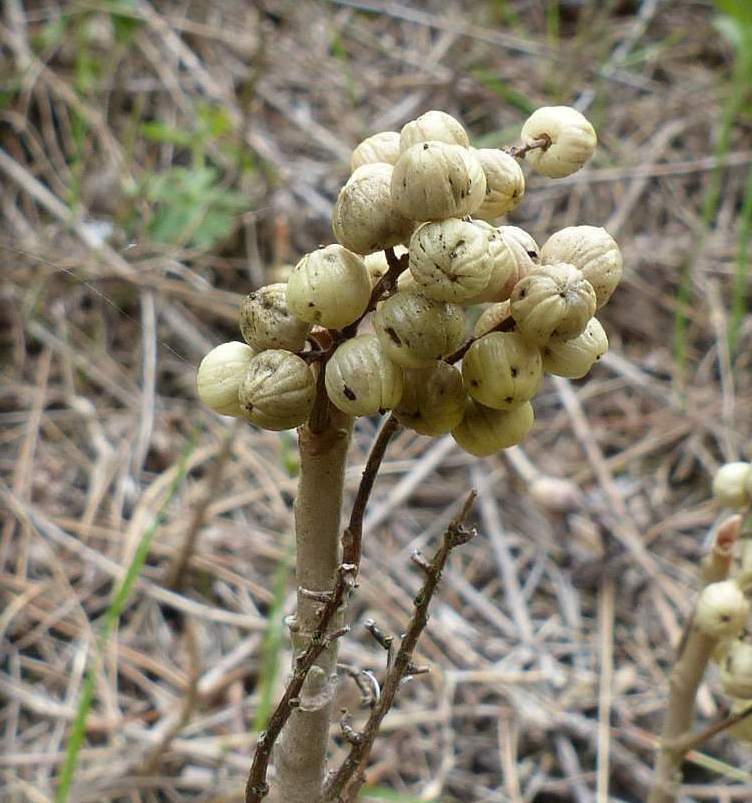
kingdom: Plantae
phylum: Tracheophyta
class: Magnoliopsida
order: Sapindales
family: Anacardiaceae
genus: Toxicodendron
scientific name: Toxicodendron radicans
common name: Poison ivy
